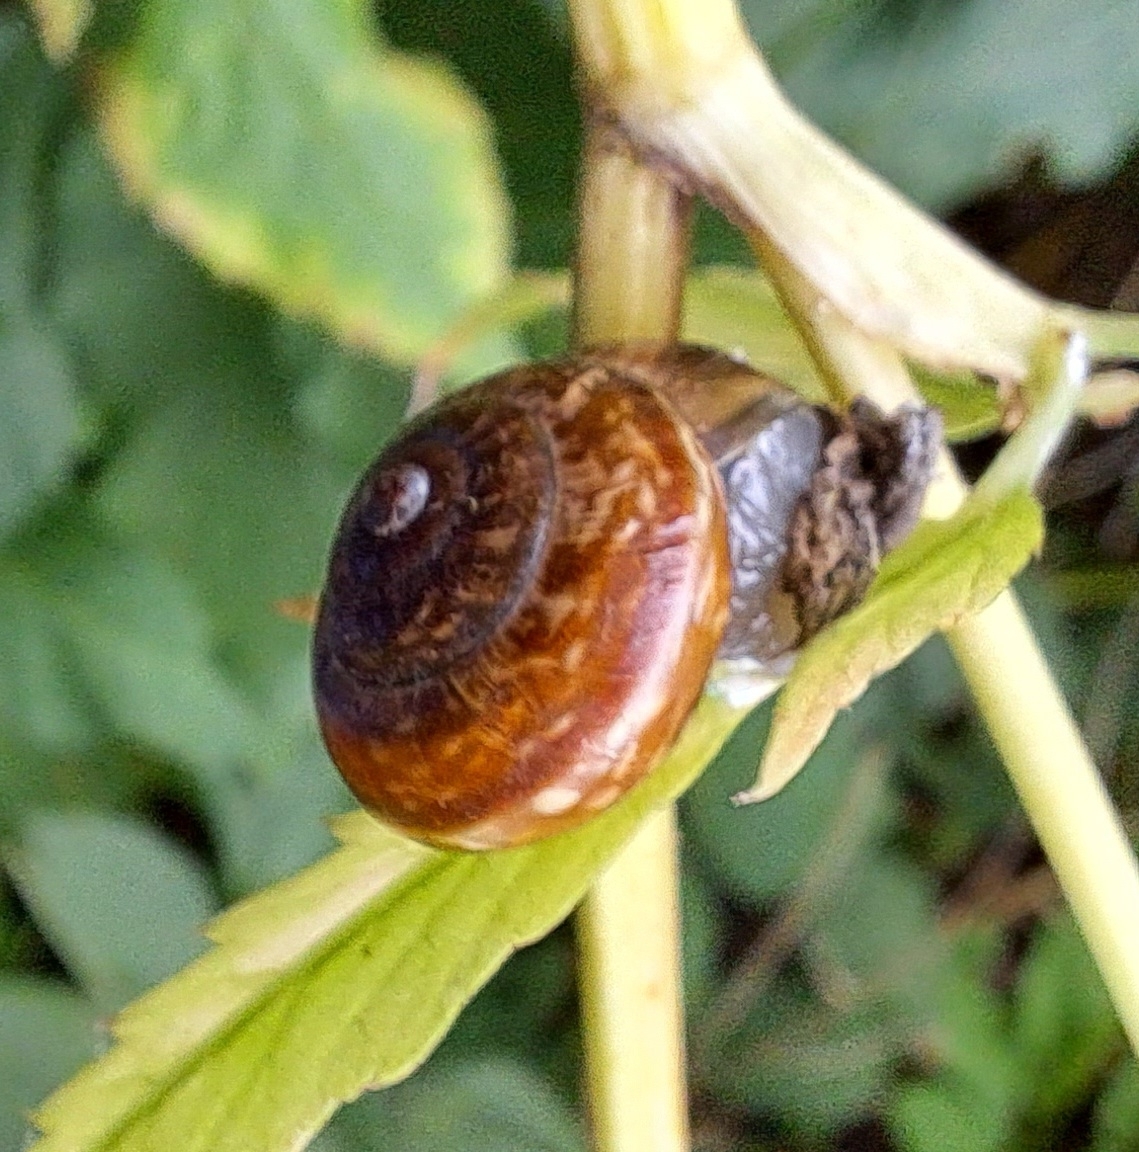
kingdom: Animalia
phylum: Mollusca
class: Gastropoda
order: Stylommatophora
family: Helicidae
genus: Arianta
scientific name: Arianta arbustorum
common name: Copse snail
